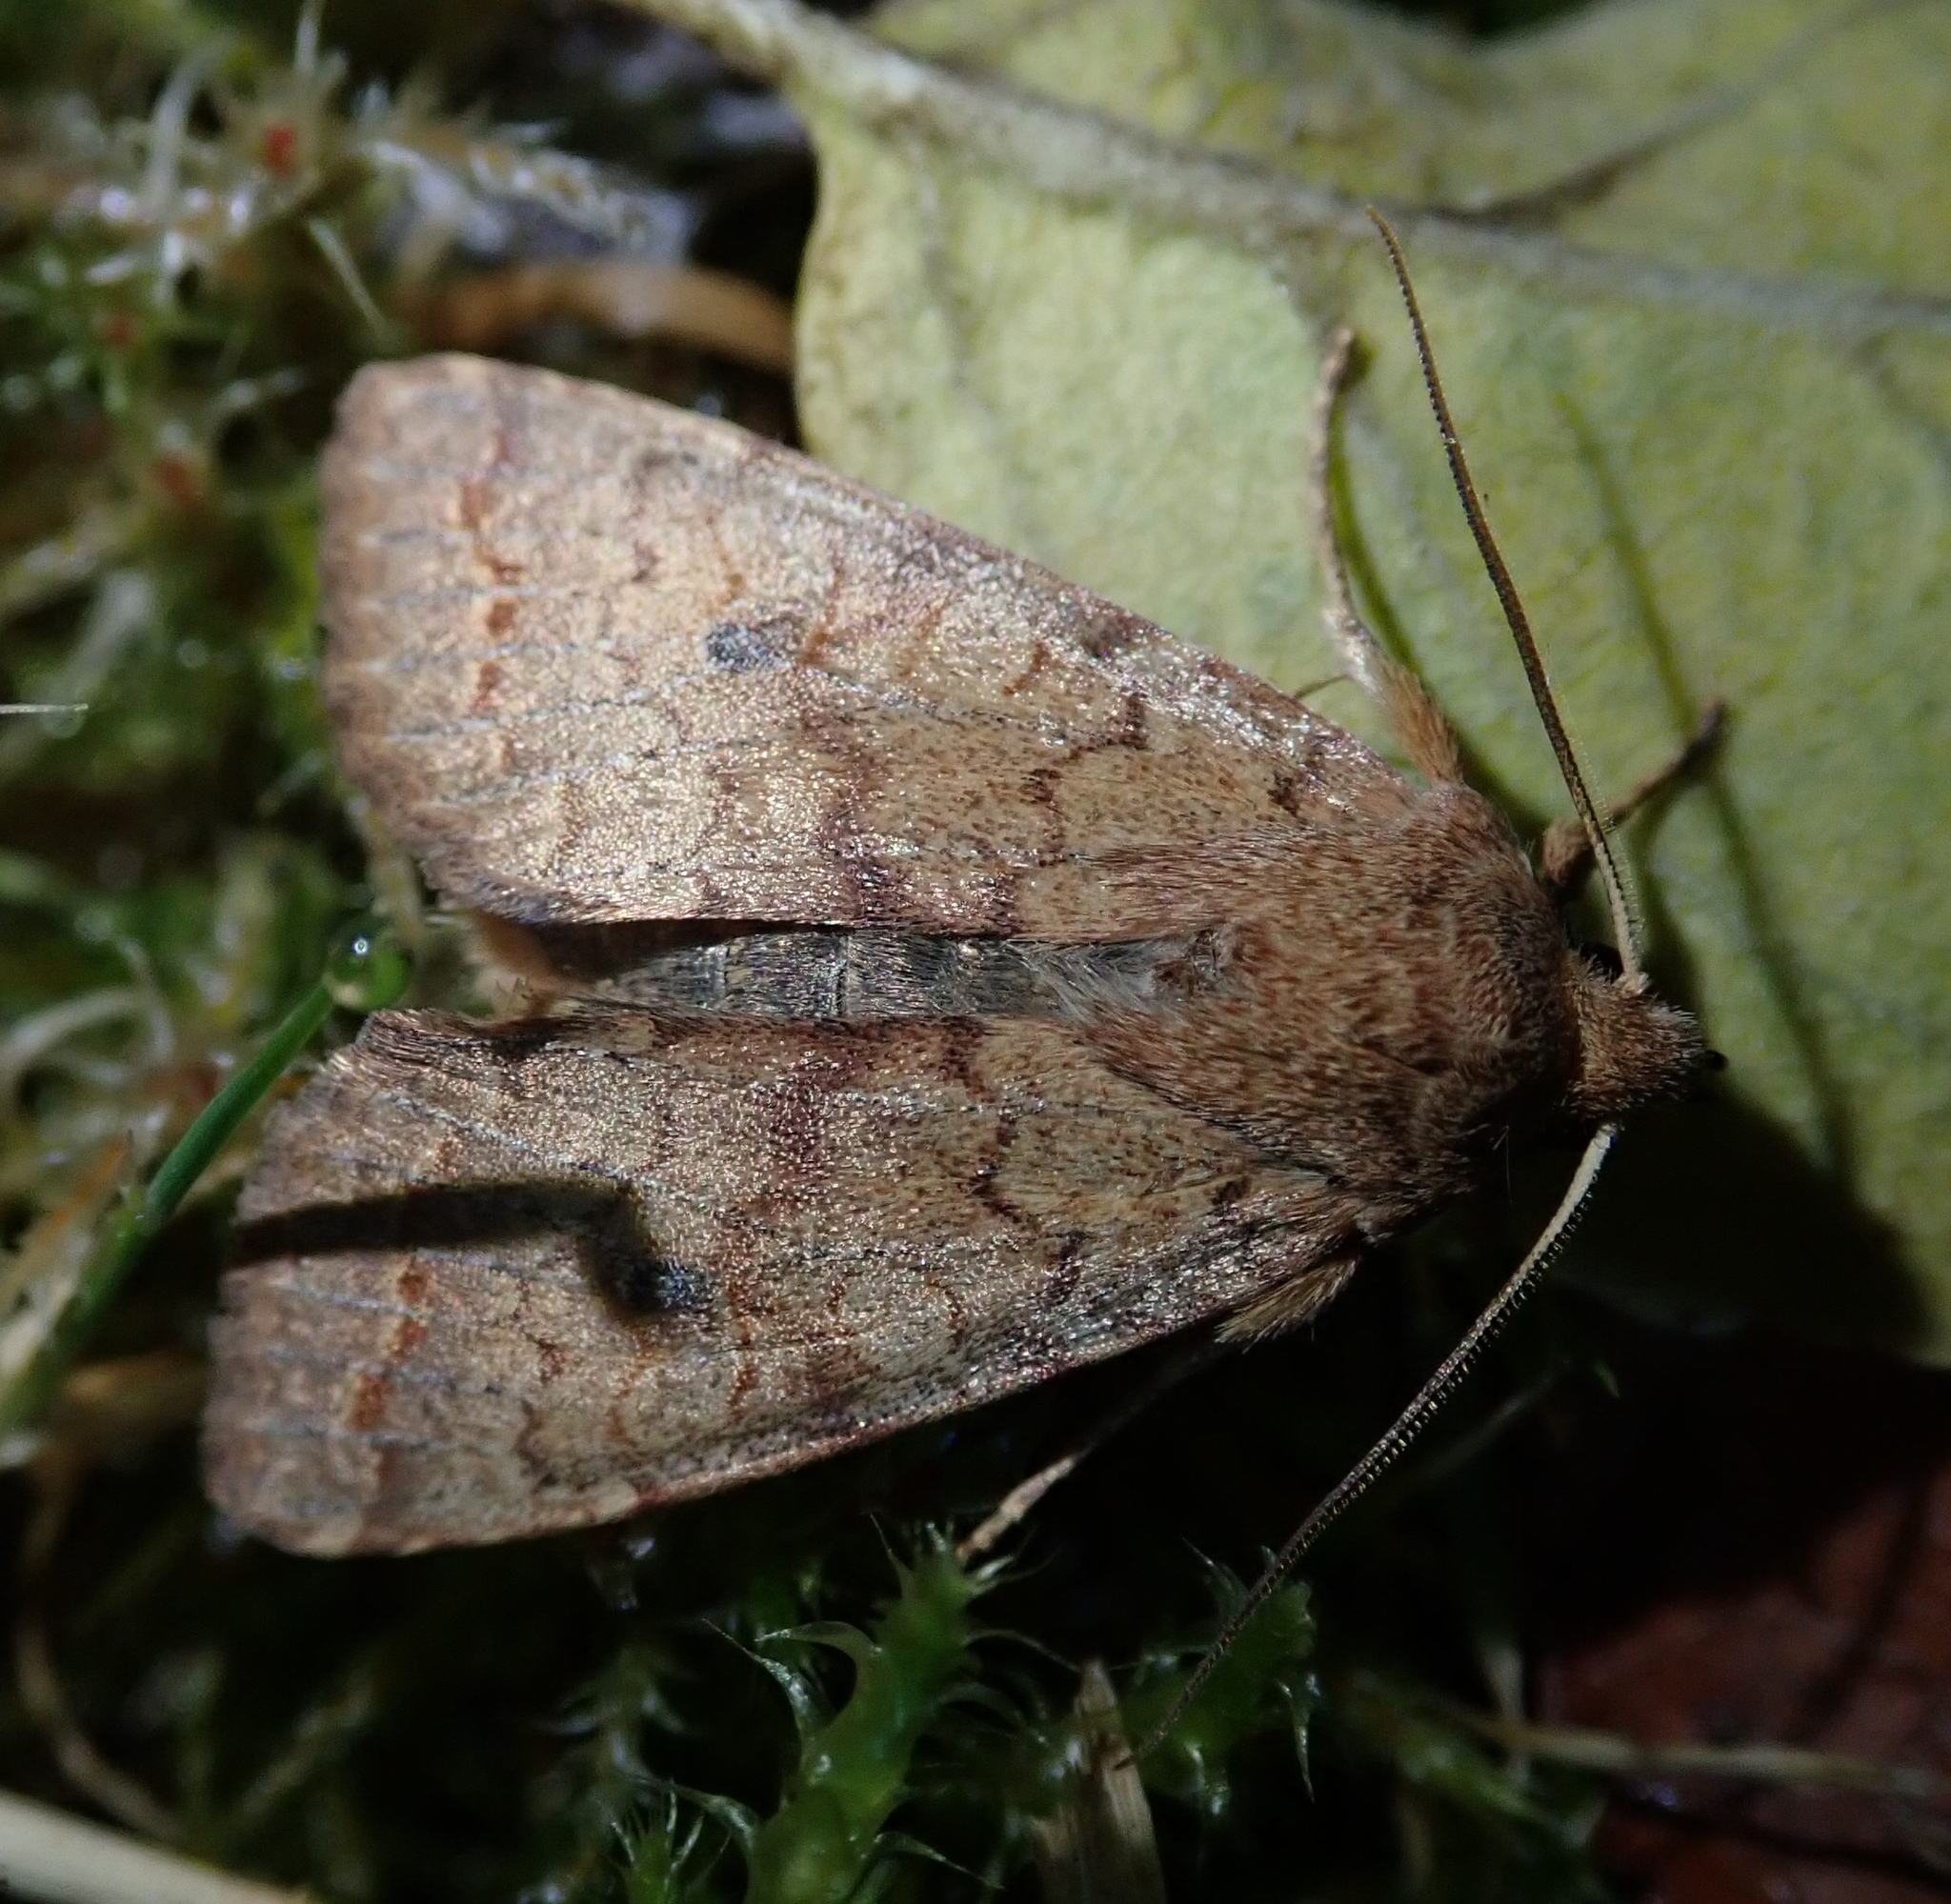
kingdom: Animalia
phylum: Arthropoda
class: Insecta
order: Lepidoptera
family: Noctuidae
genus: Sunira
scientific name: Sunira circellaris
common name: Brick
